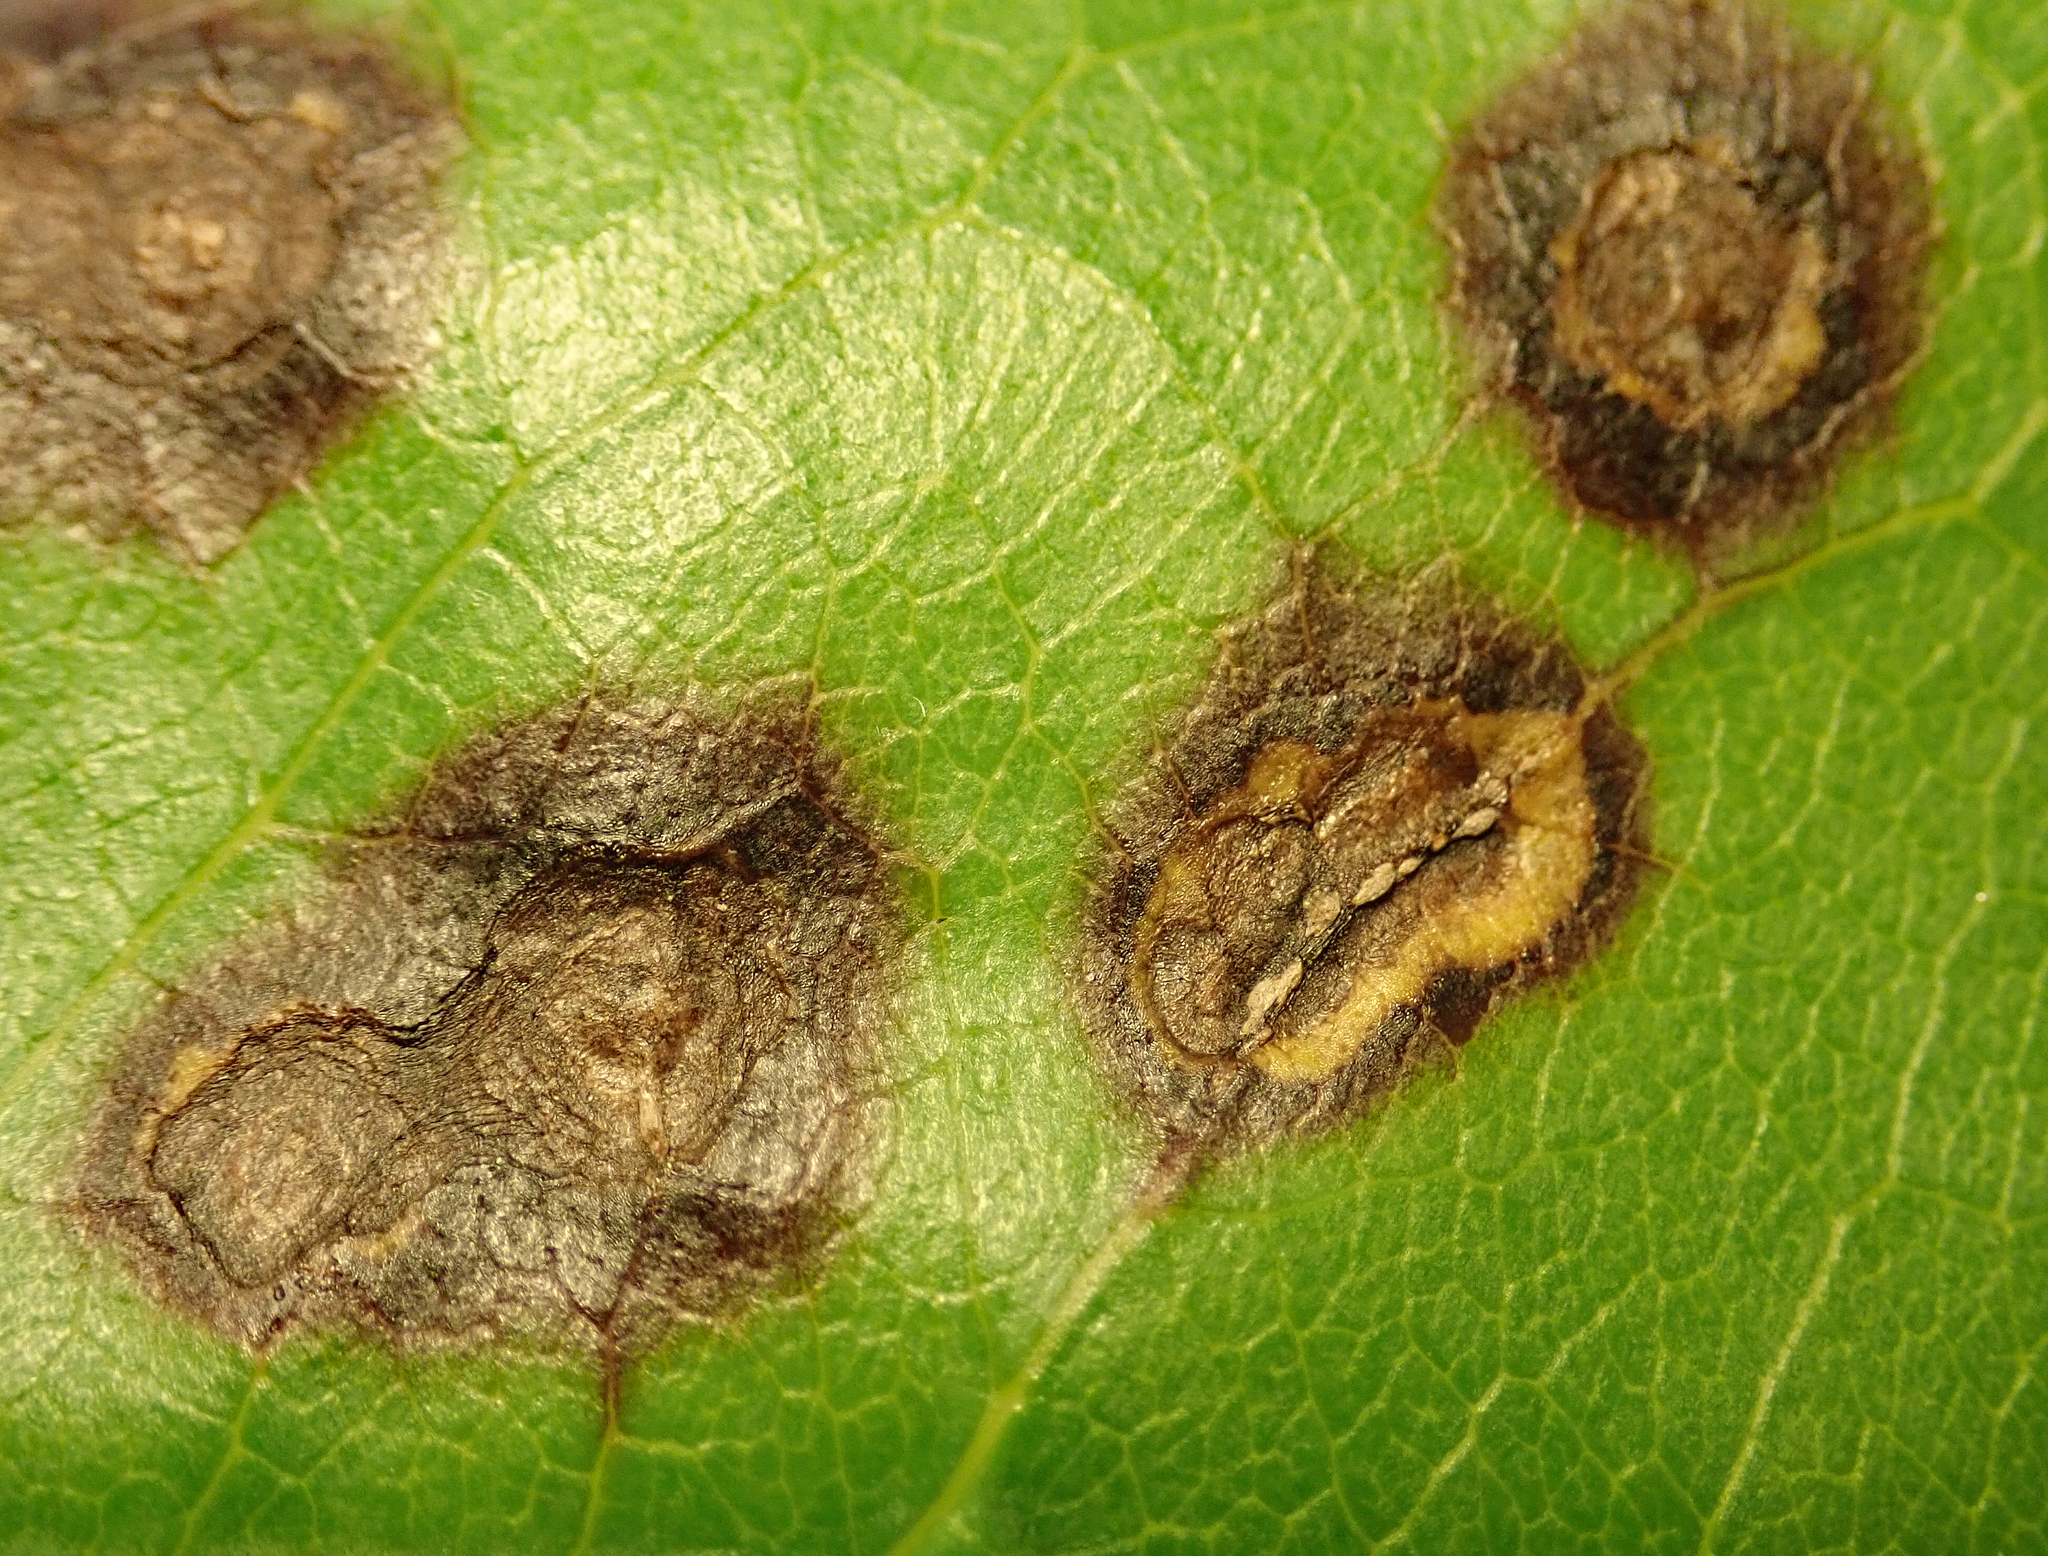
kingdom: Fungi
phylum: Basidiomycota
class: Pucciniomycetes
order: Pucciniales
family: Pucciniaceae
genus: Puccinia
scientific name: Puccinia coprosmae
